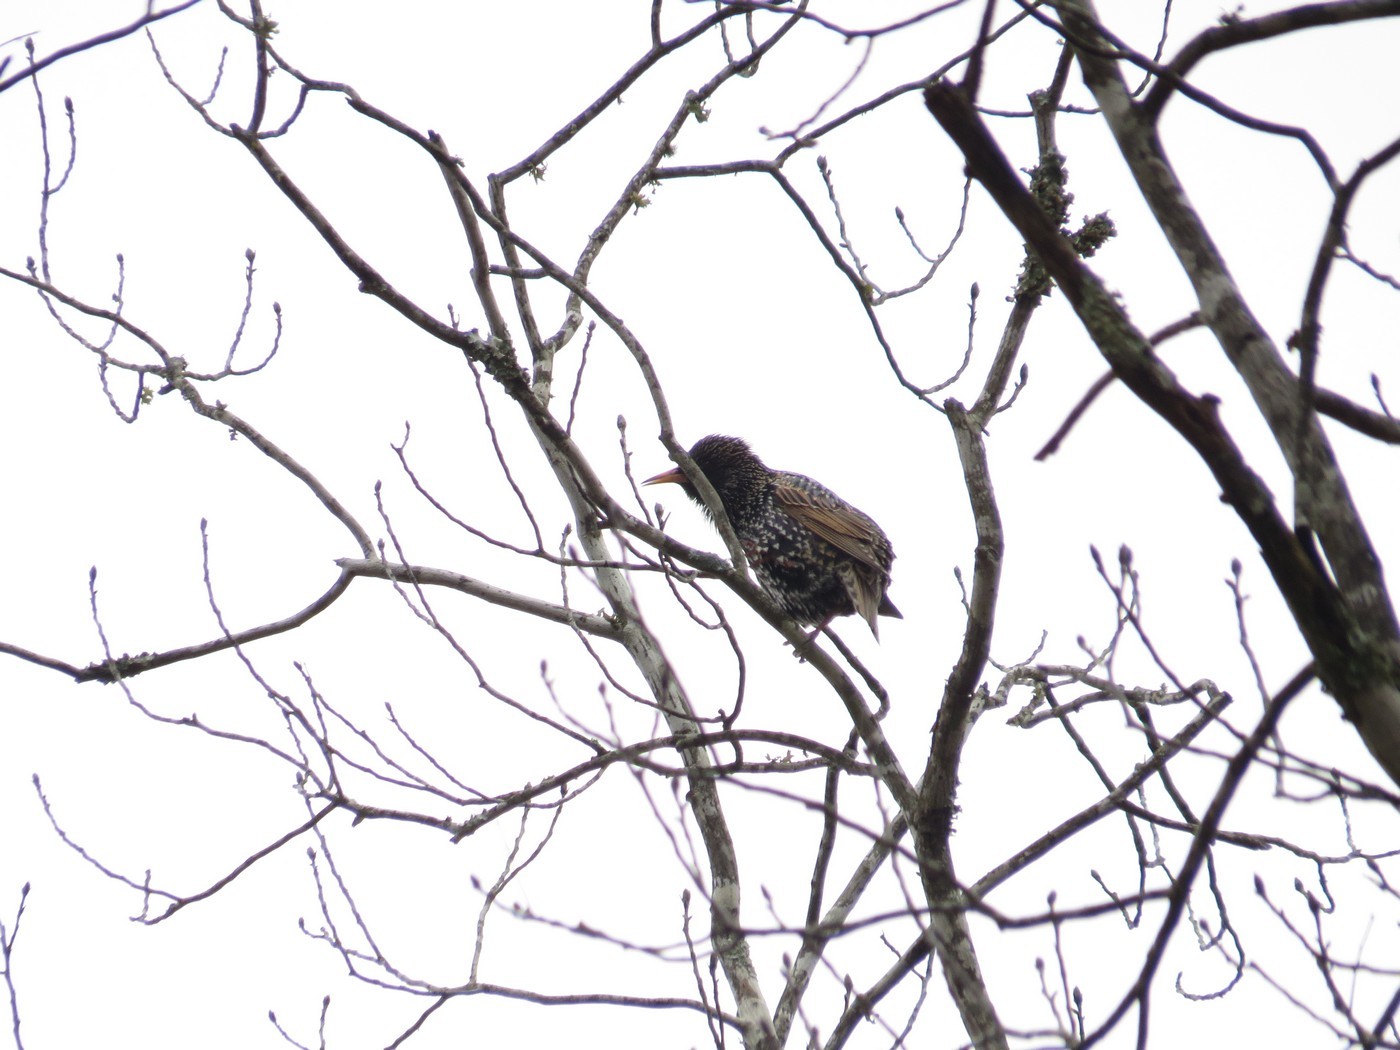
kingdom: Animalia
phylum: Chordata
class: Aves
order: Passeriformes
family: Sturnidae
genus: Sturnus
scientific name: Sturnus vulgaris
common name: Common starling
